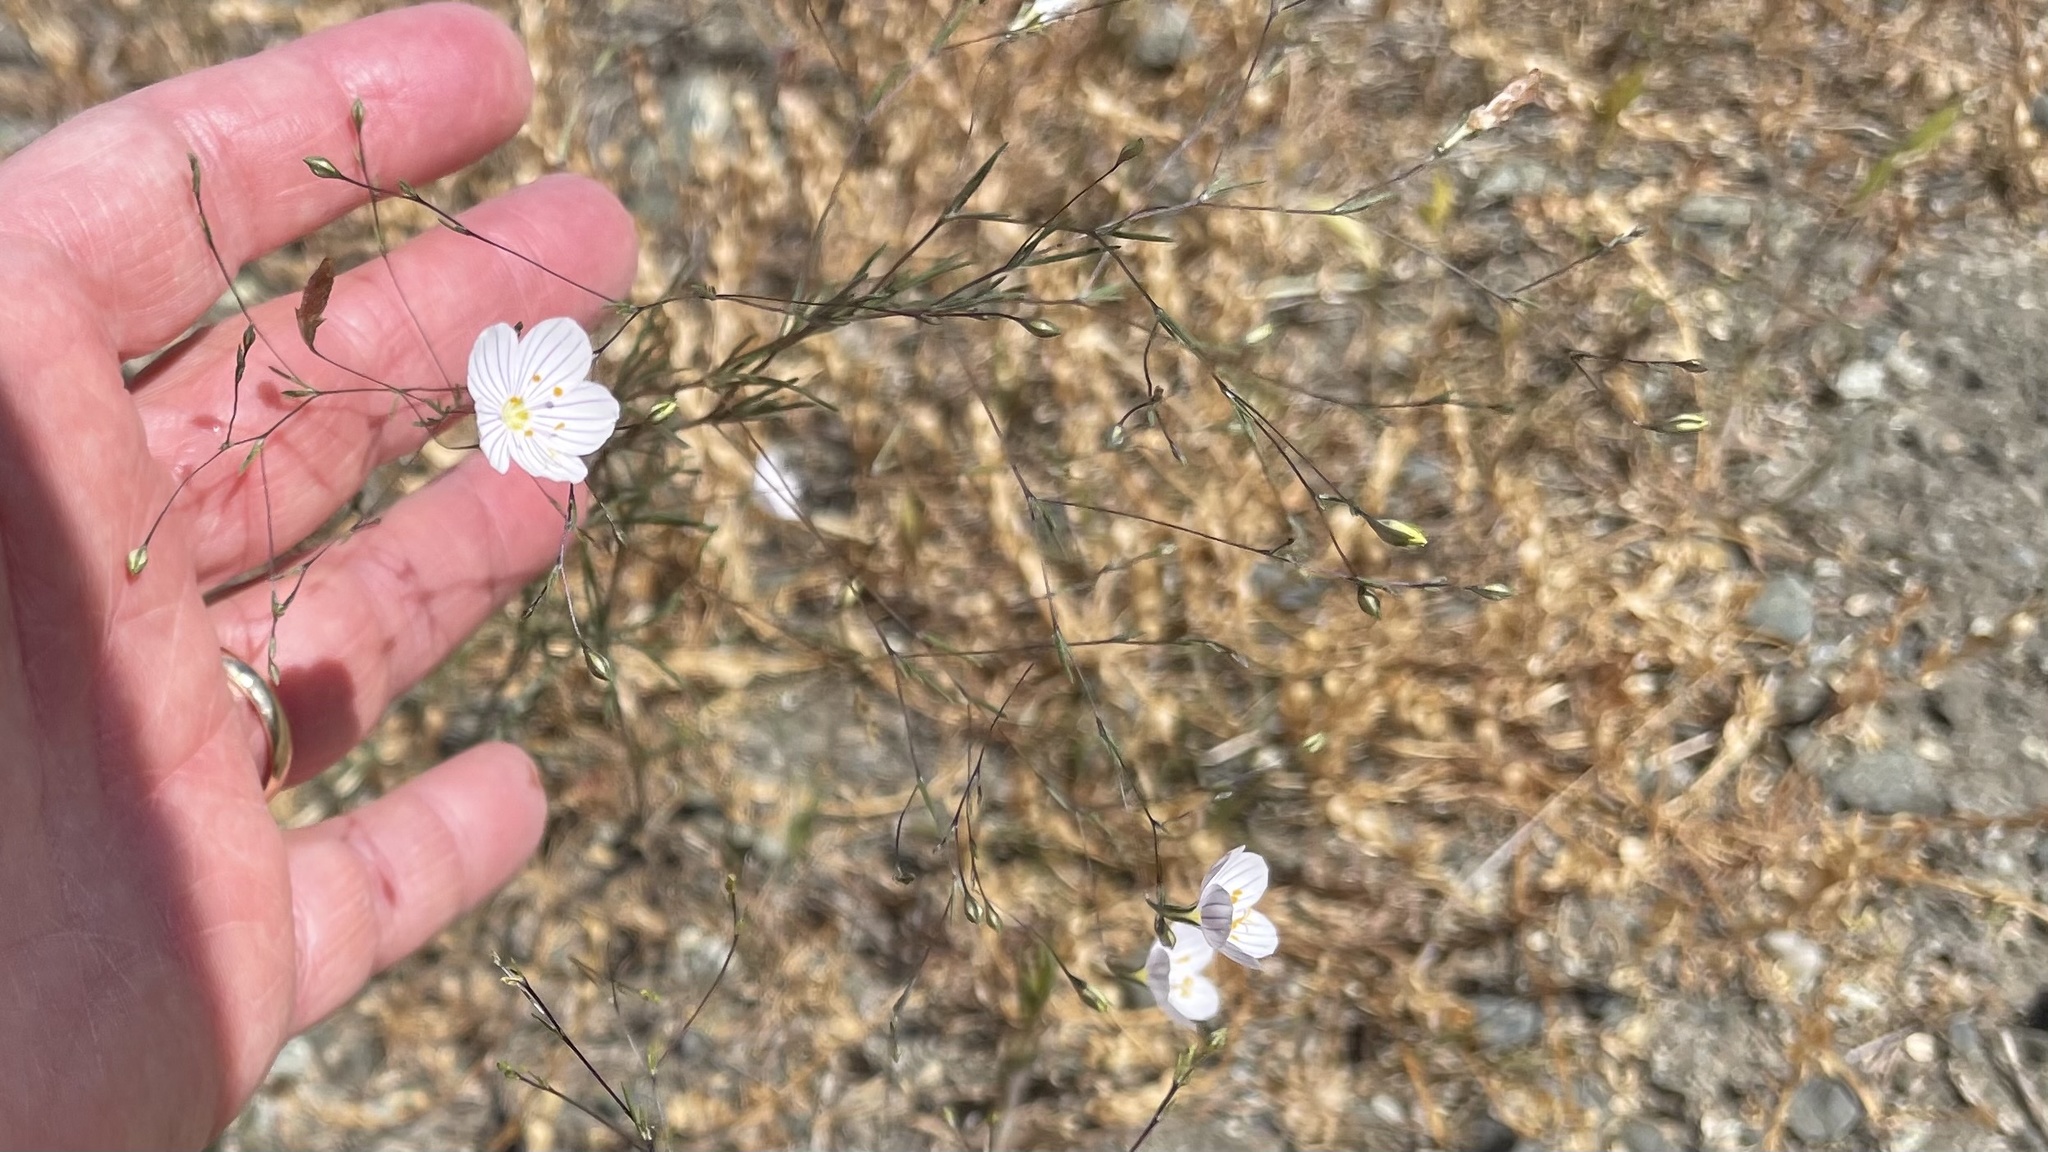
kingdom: Plantae
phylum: Tracheophyta
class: Magnoliopsida
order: Ericales
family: Polemoniaceae
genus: Leptosiphon
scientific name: Leptosiphon liniflorus
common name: Narrowflower flaxflower
